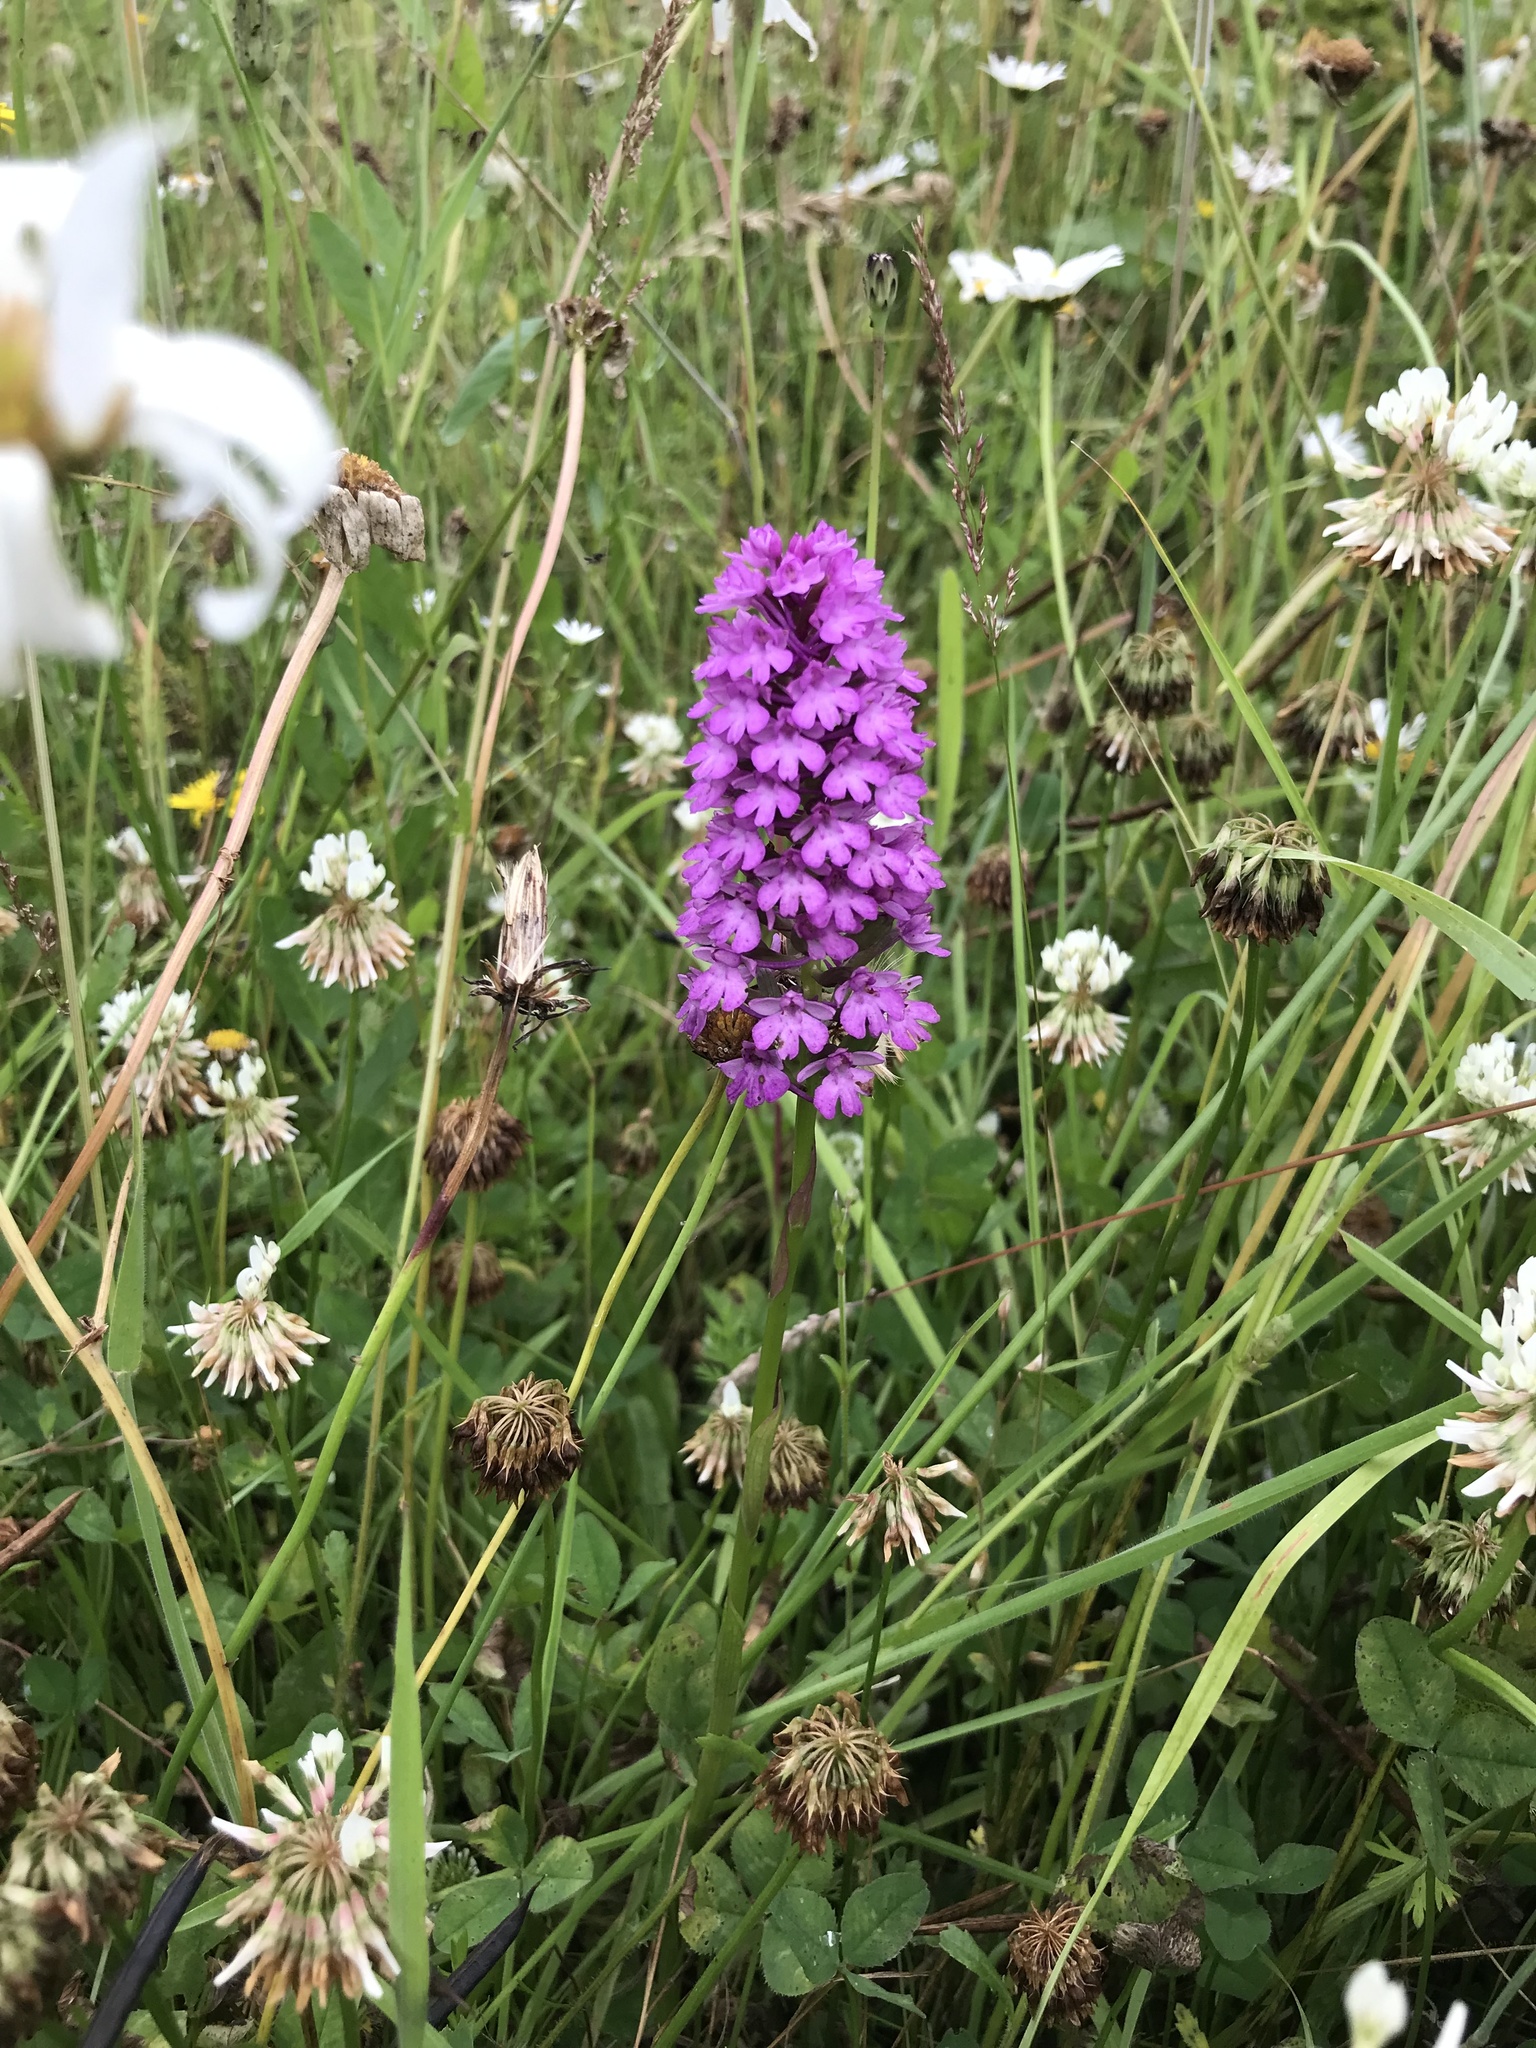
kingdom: Plantae
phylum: Tracheophyta
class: Liliopsida
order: Asparagales
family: Orchidaceae
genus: Anacamptis
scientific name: Anacamptis pyramidalis
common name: Pyramidal orchid
